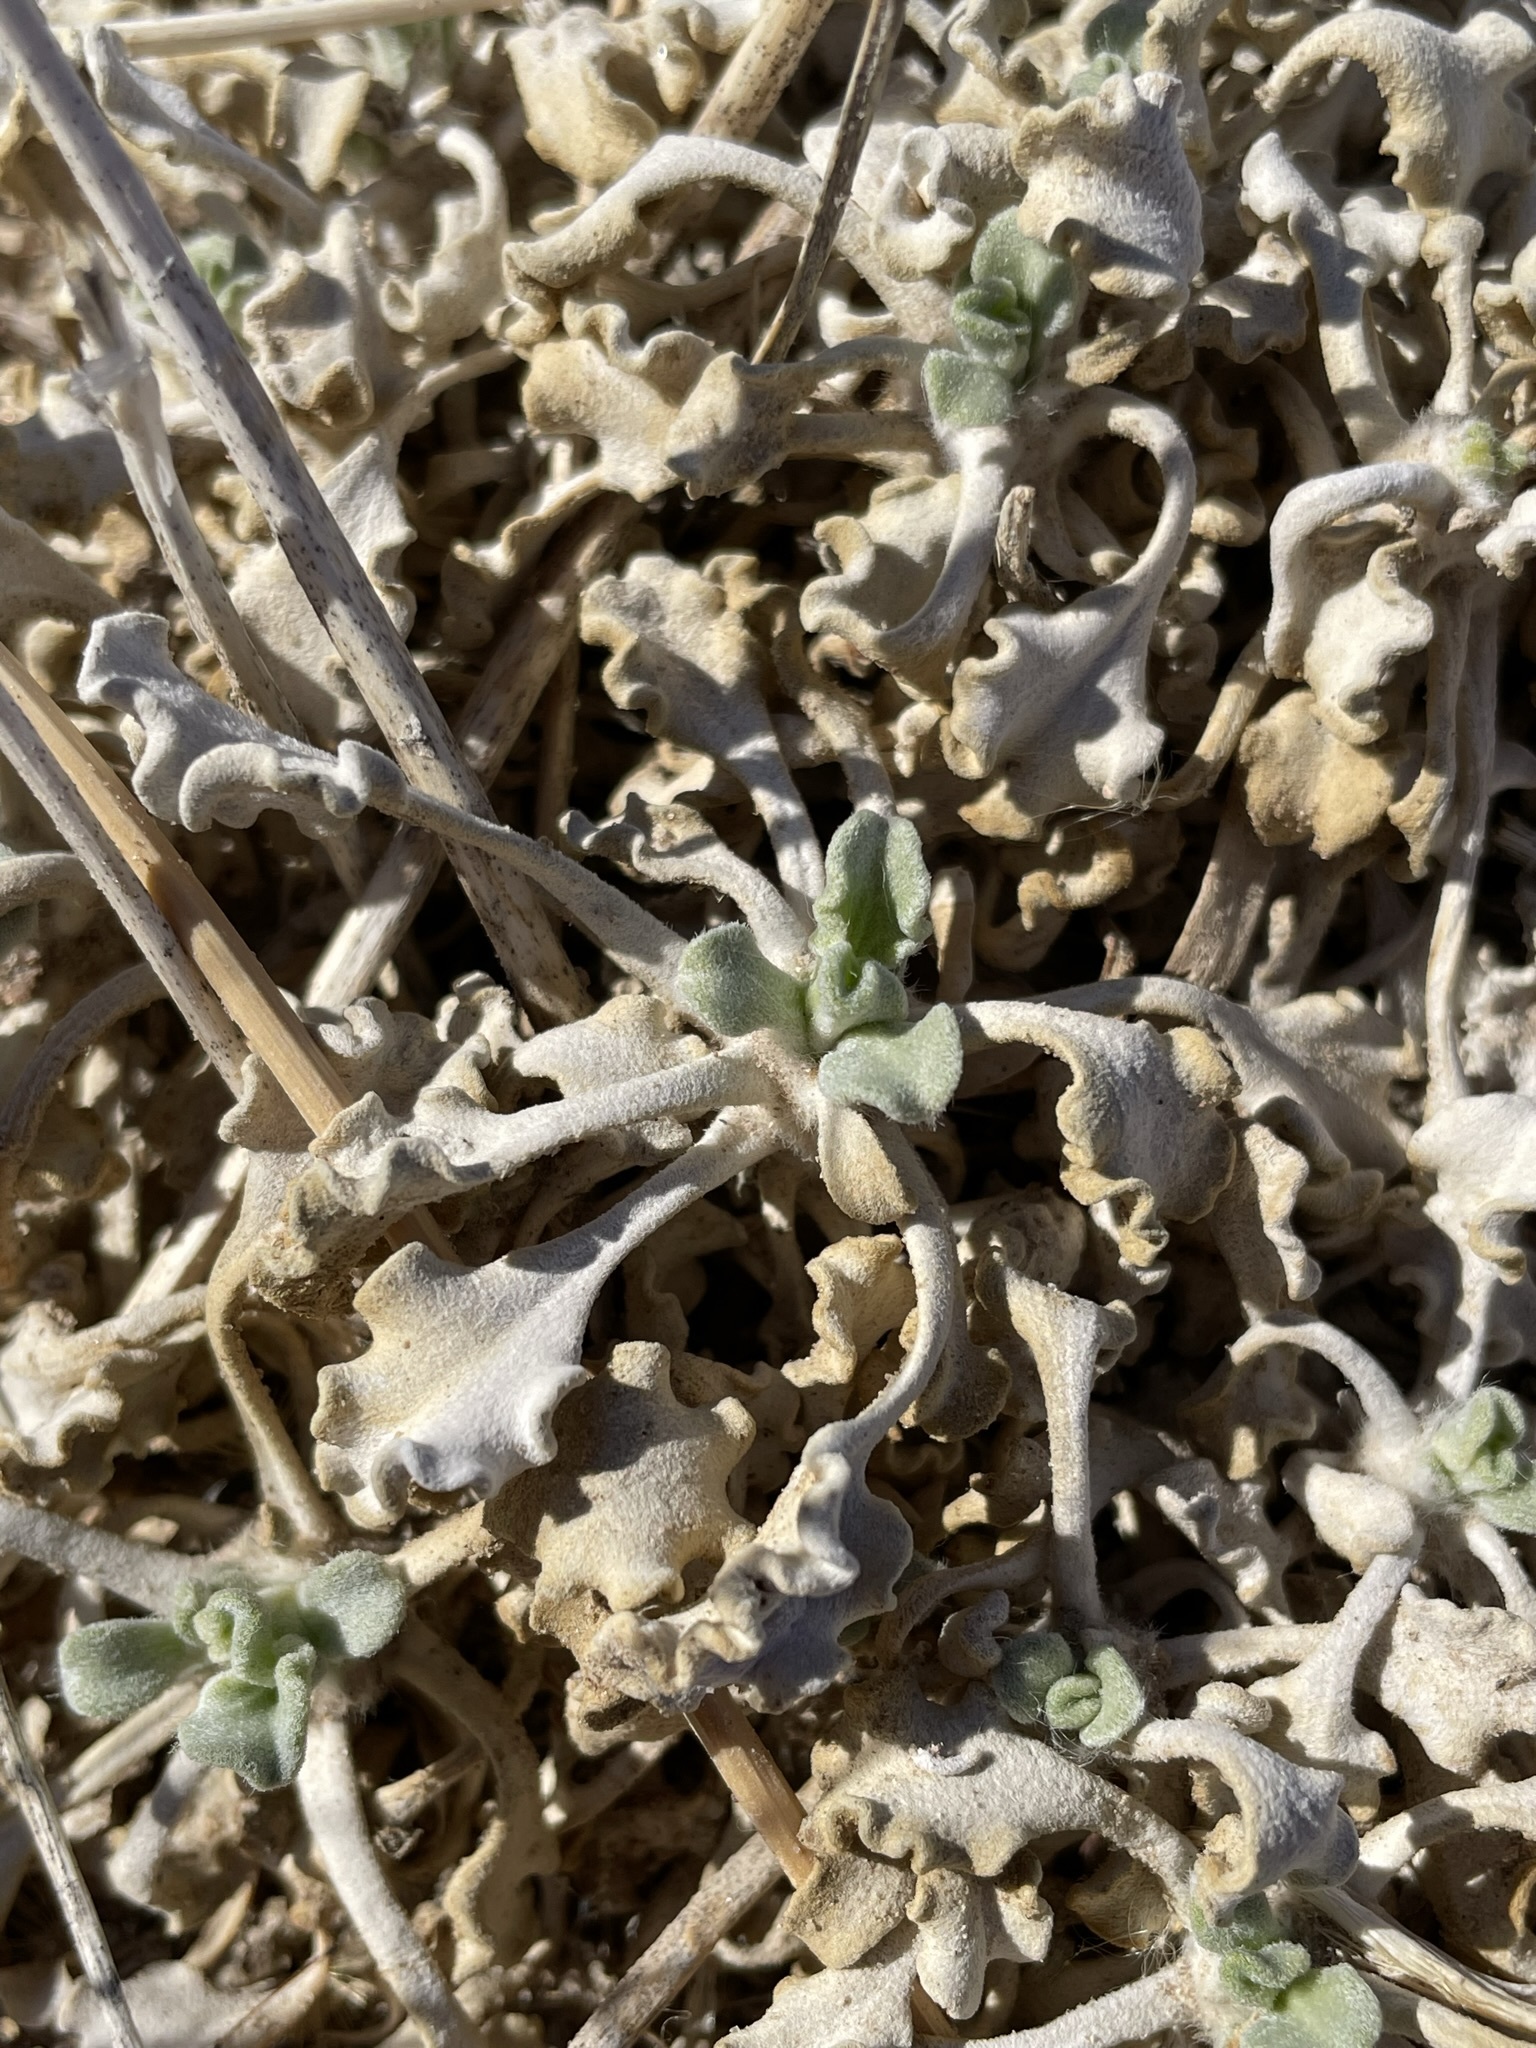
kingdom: Plantae
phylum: Tracheophyta
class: Magnoliopsida
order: Asterales
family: Asteraceae
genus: Enceliopsis
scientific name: Enceliopsis nudicaulis
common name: Naked-stem daisy
